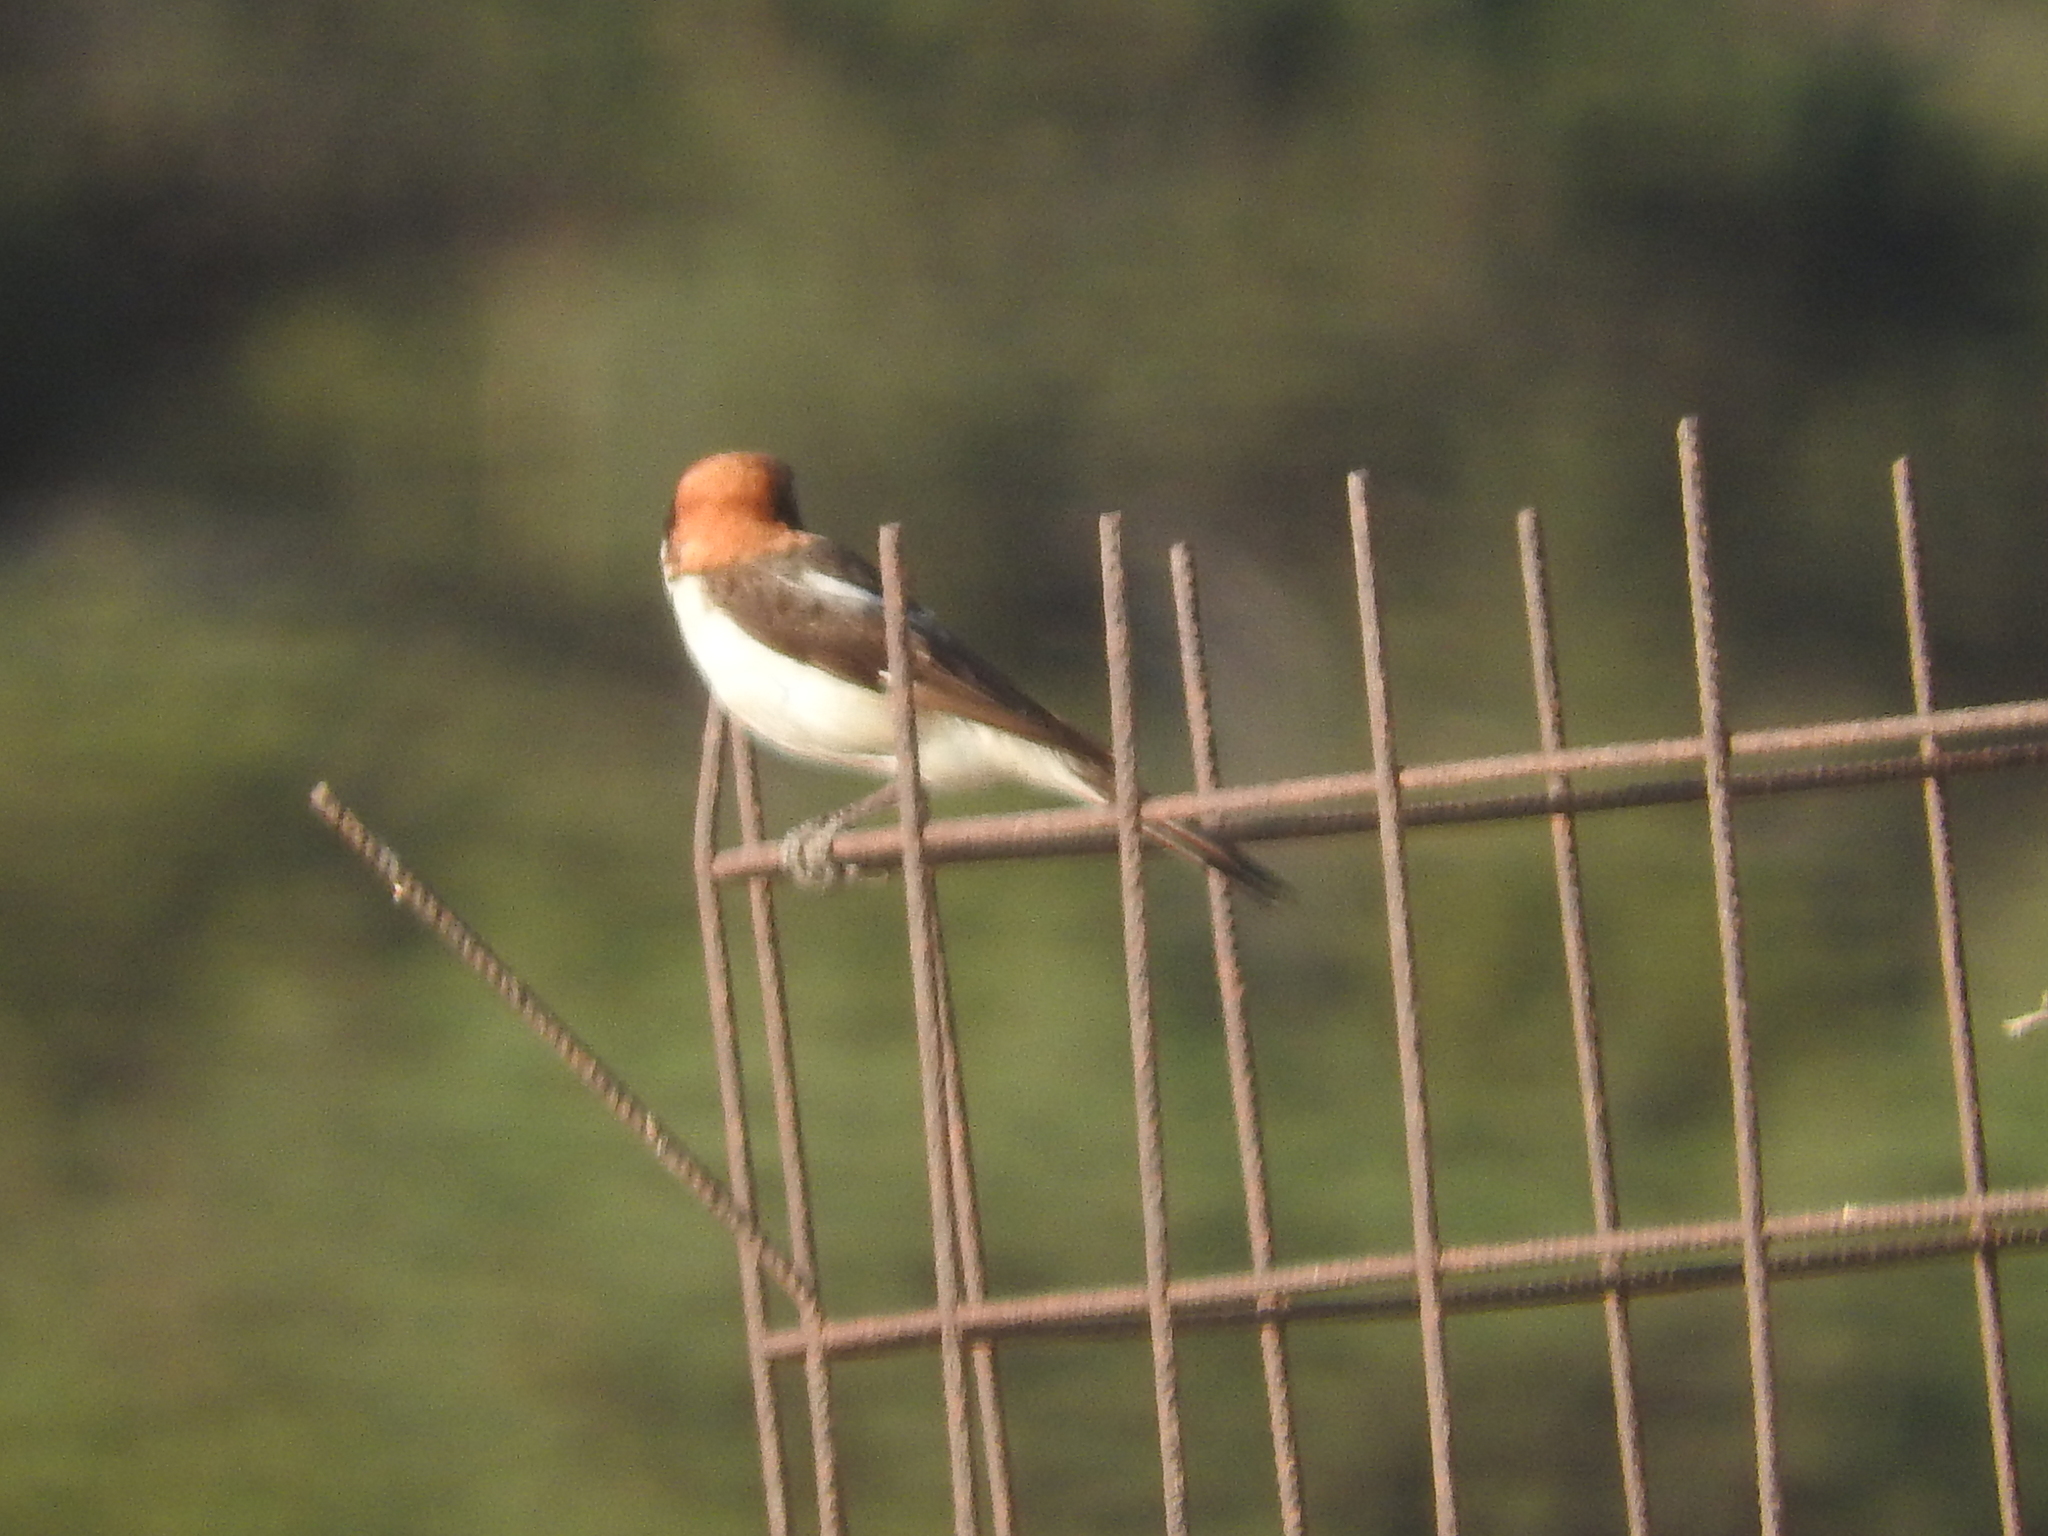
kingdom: Animalia
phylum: Chordata
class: Aves
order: Passeriformes
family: Laniidae
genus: Lanius
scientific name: Lanius senator
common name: Woodchat shrike
